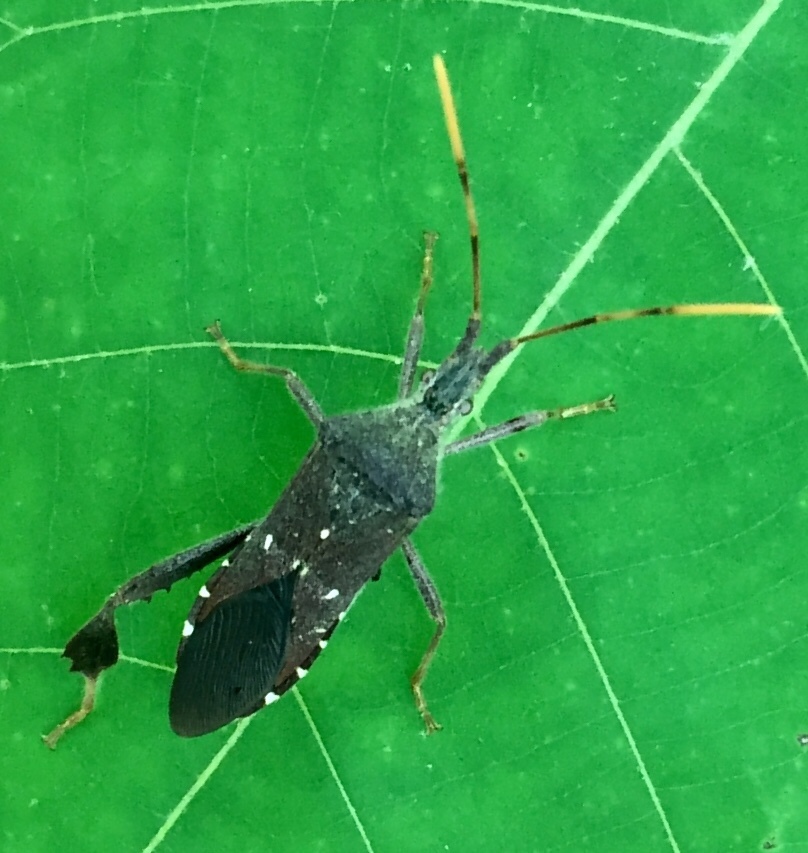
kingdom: Animalia
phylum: Arthropoda
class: Insecta
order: Hemiptera
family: Coreidae
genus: Leptoglossus
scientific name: Leptoglossus oppositus
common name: Northern leaf-footed bug
